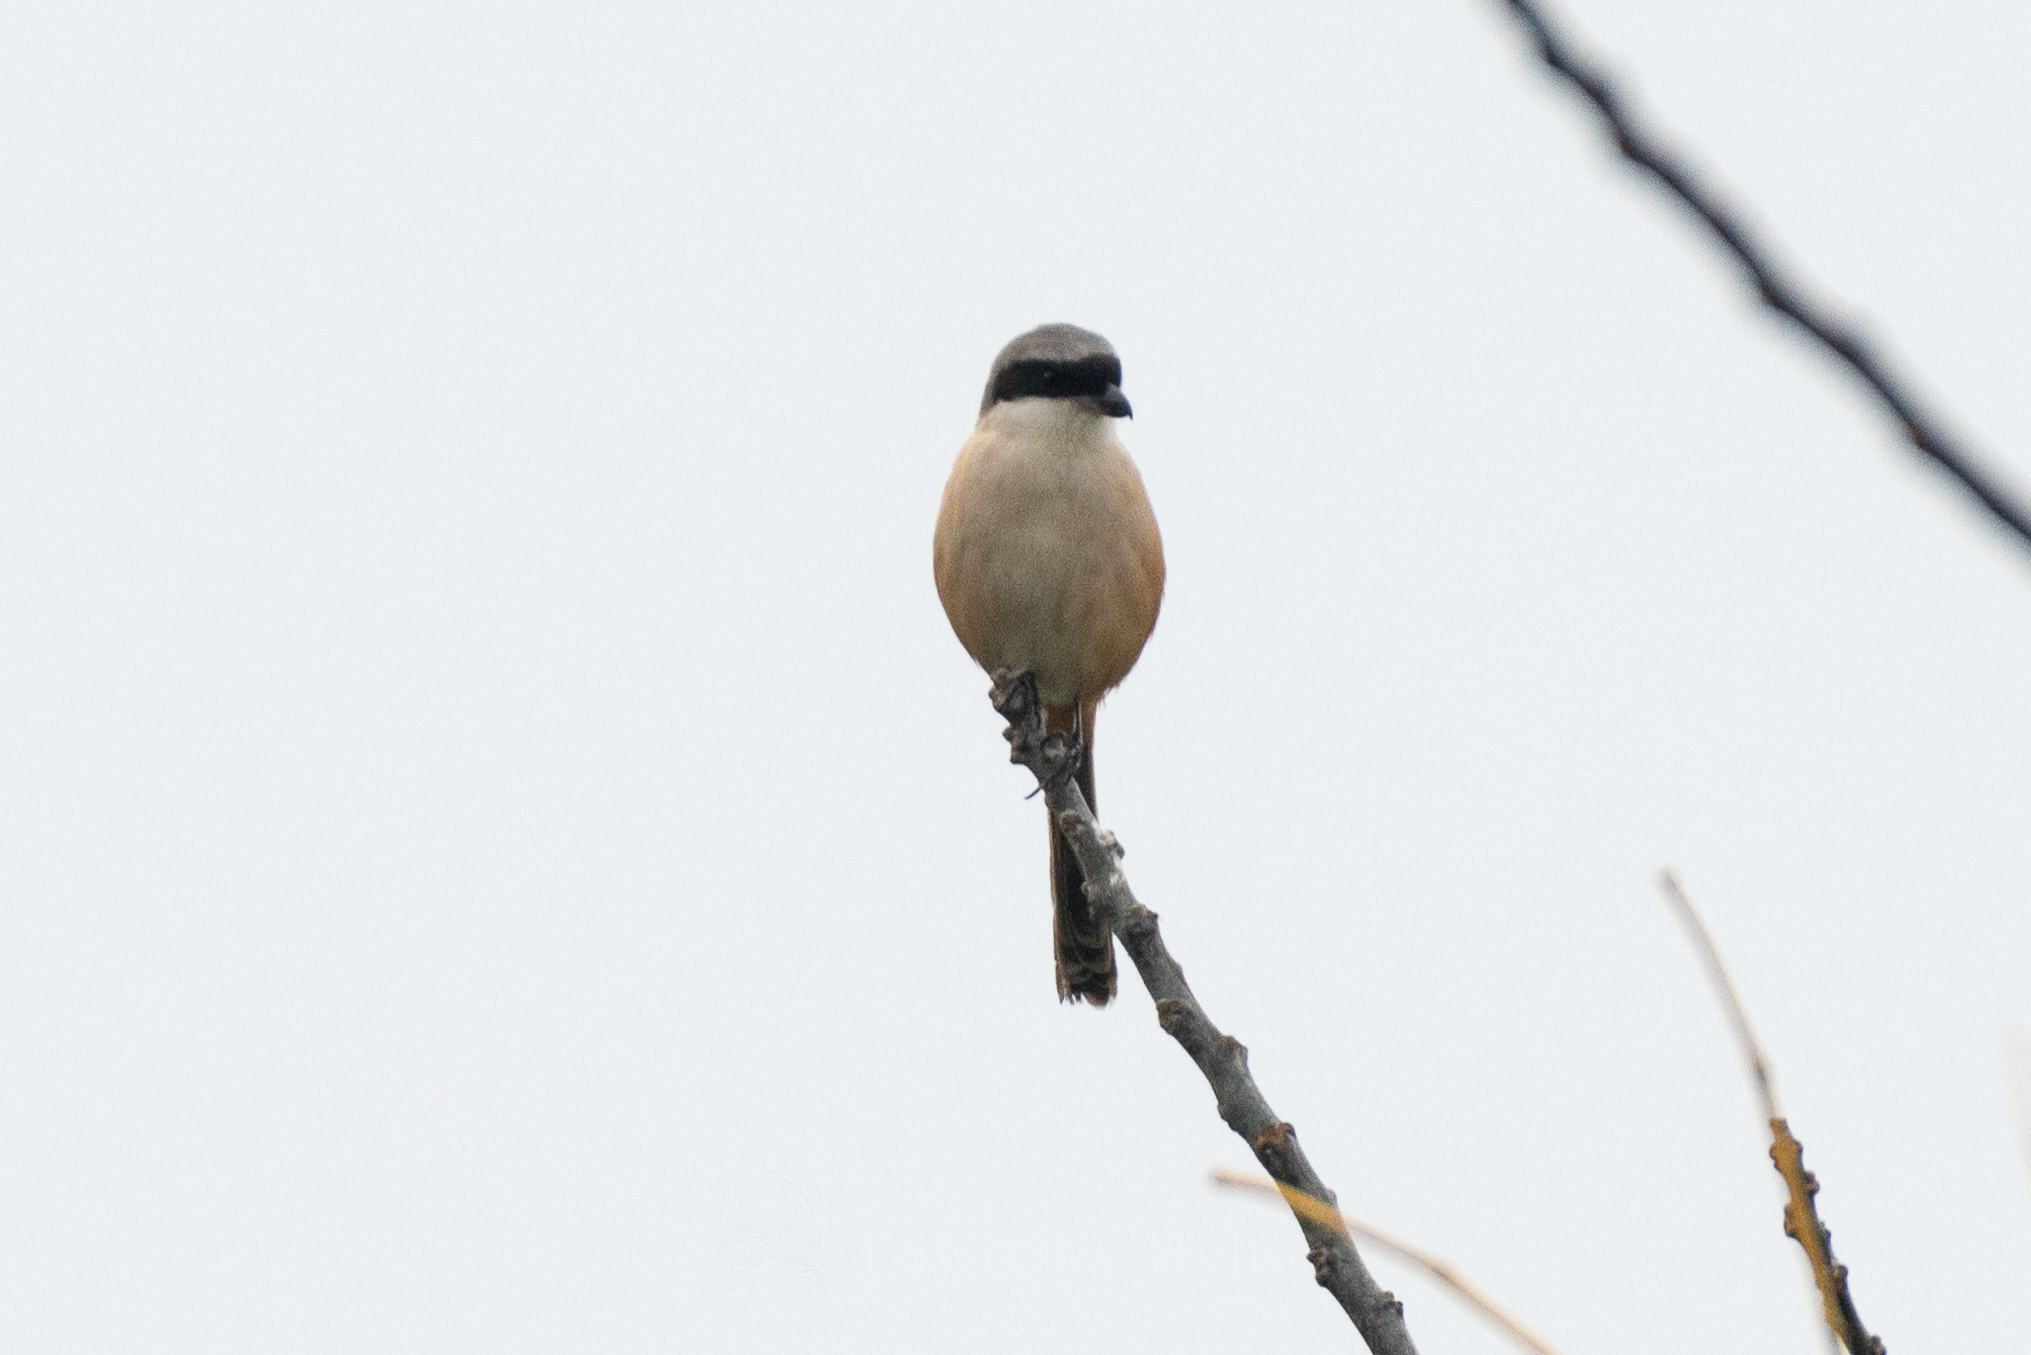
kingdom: Animalia
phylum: Chordata
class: Aves
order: Passeriformes
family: Laniidae
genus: Lanius
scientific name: Lanius schach
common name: Long-tailed shrike
